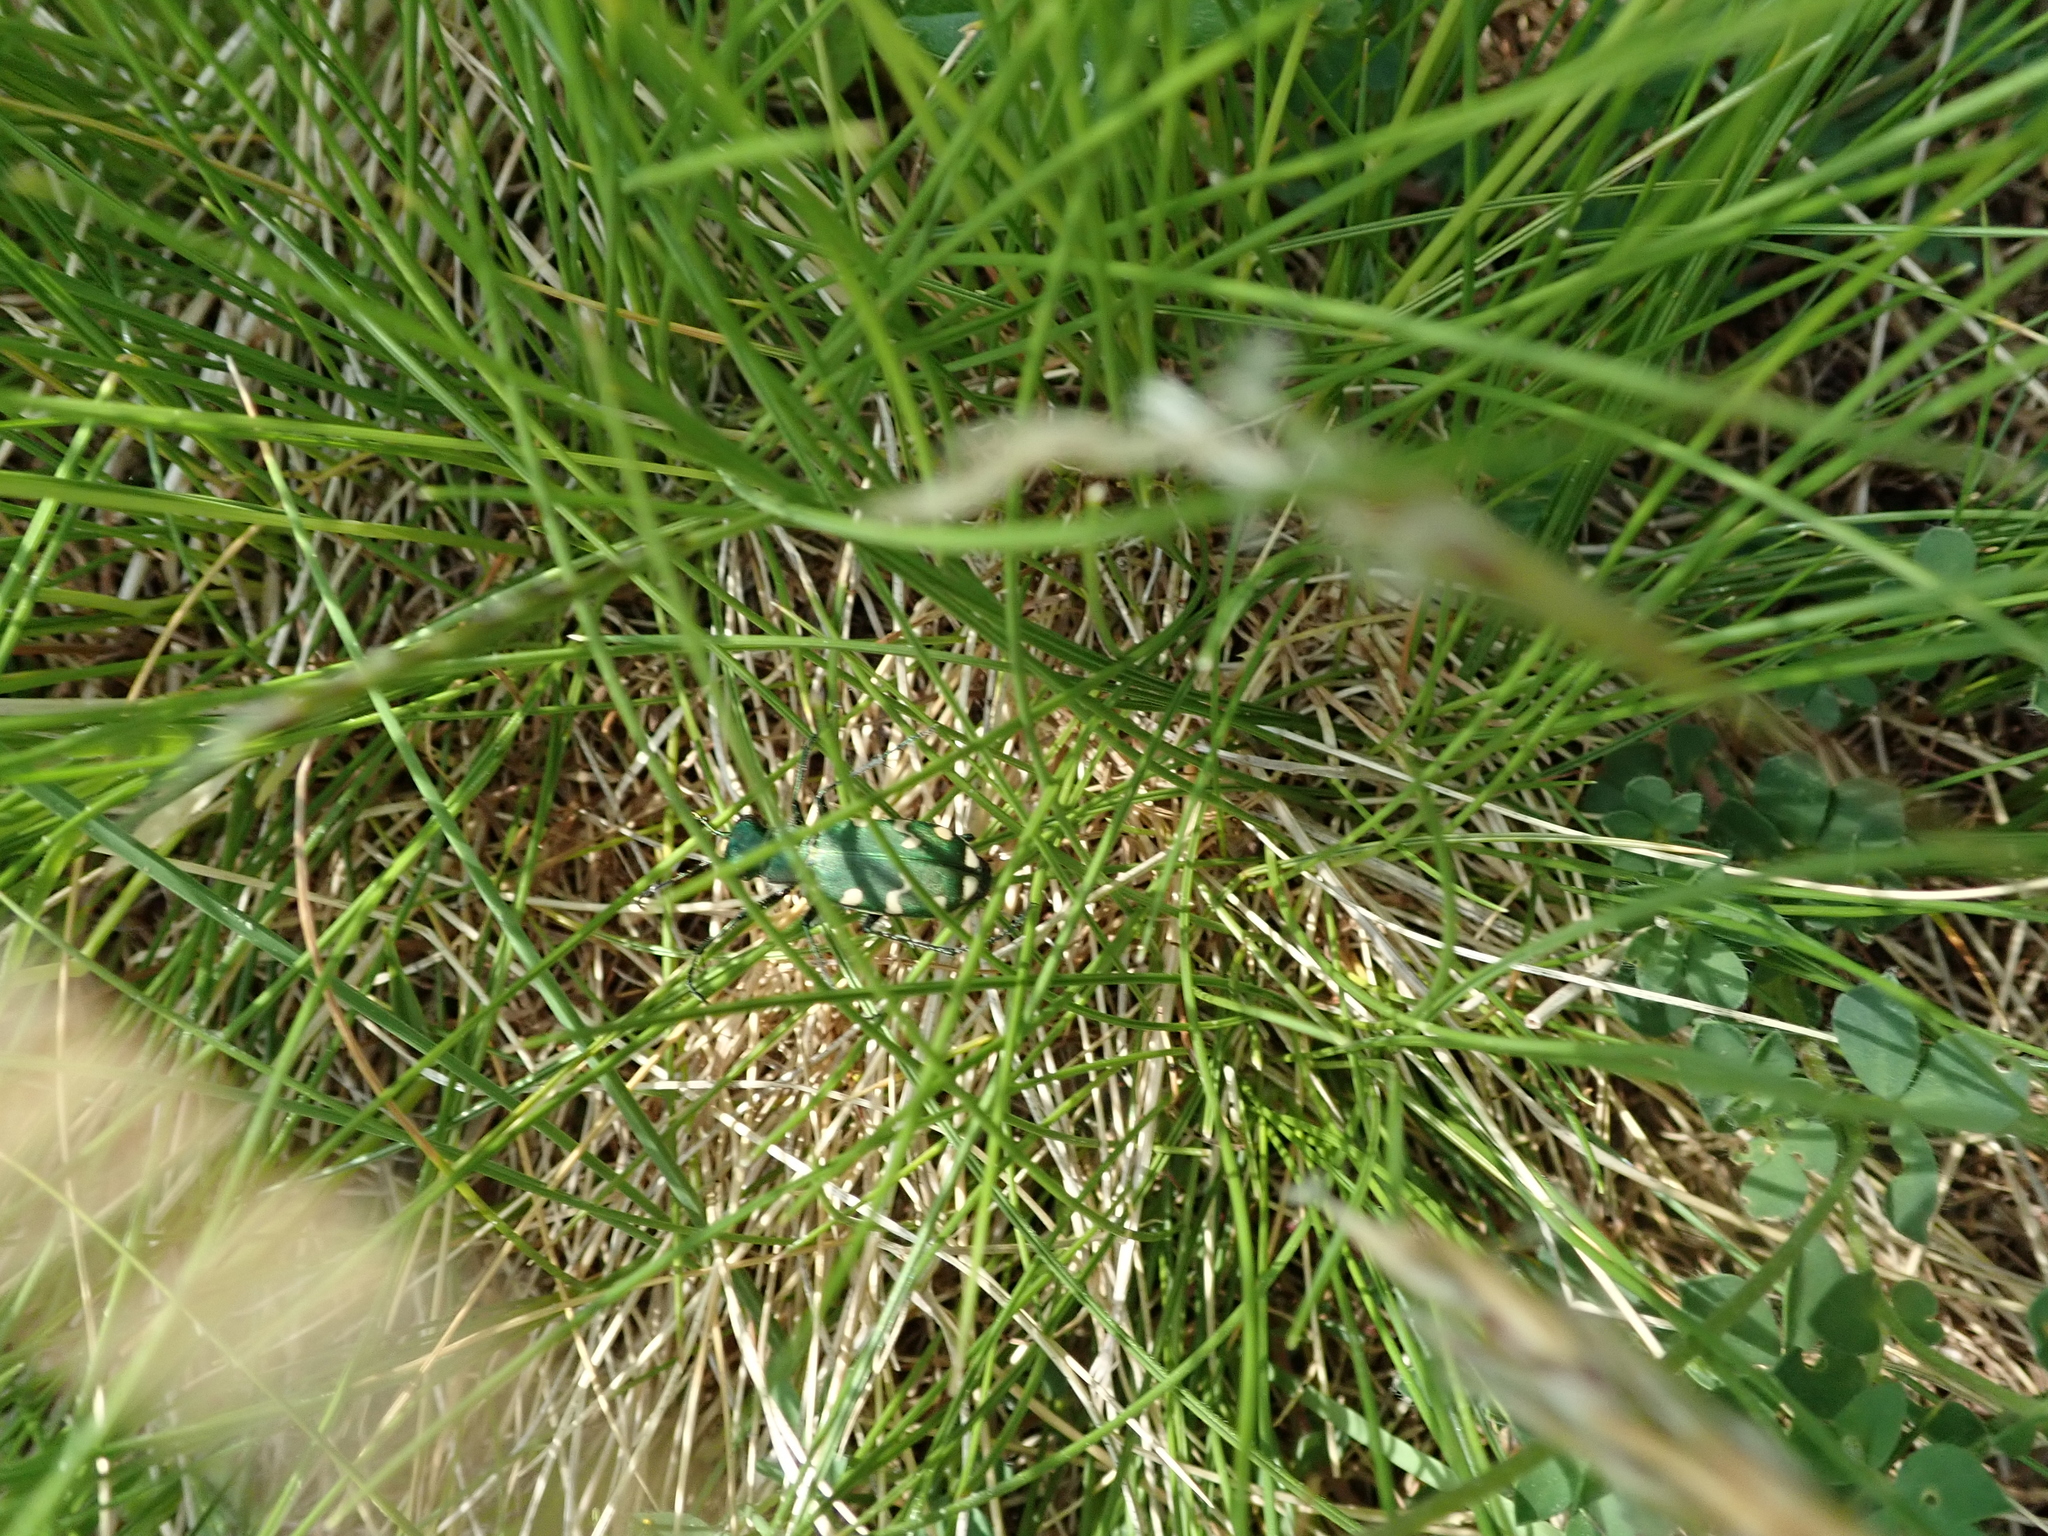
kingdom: Animalia
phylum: Arthropoda
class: Insecta
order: Coleoptera
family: Carabidae
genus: Cicindela
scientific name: Cicindela gallica
